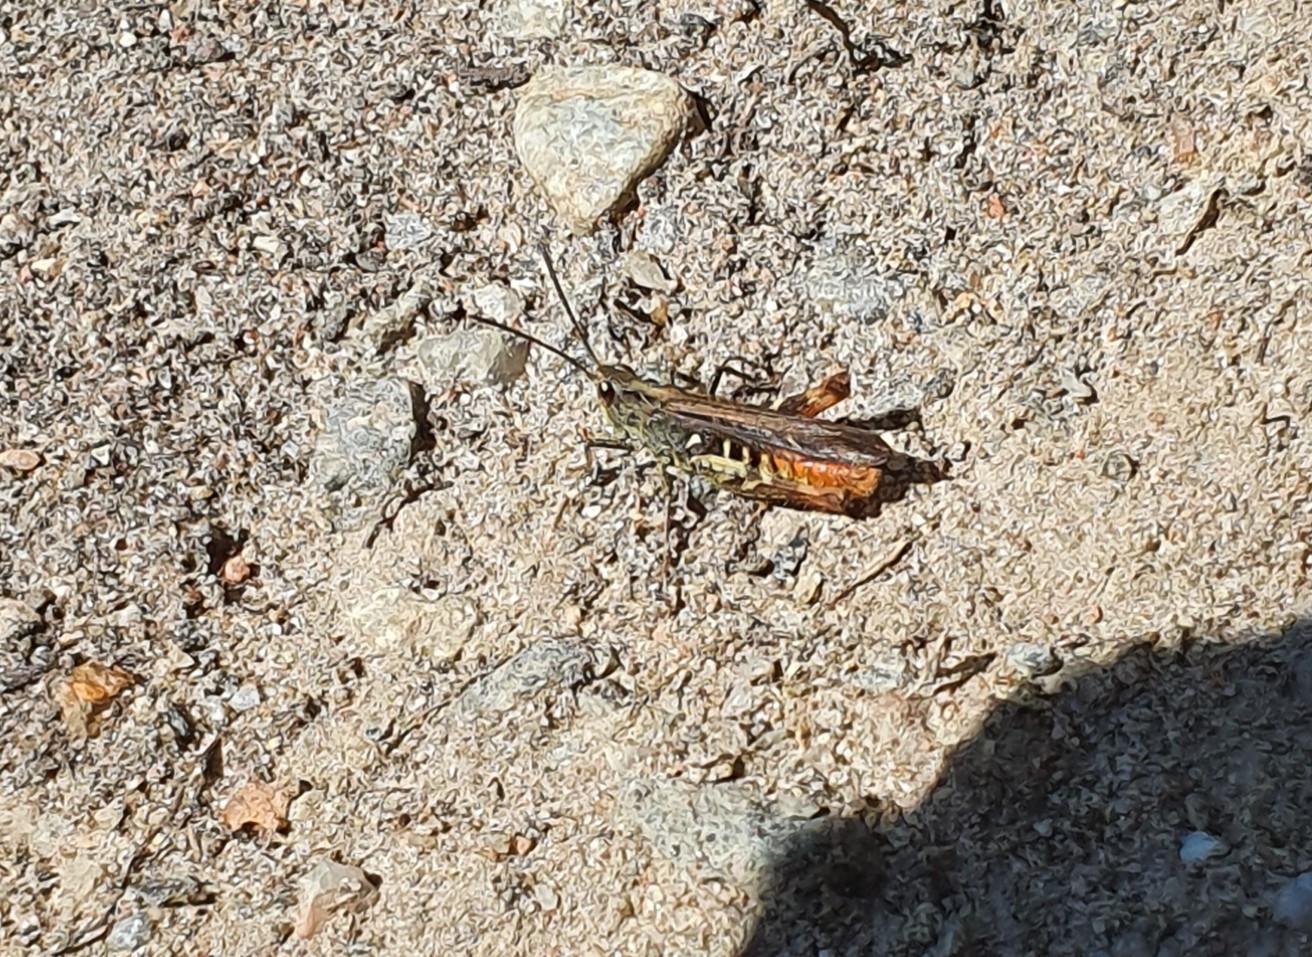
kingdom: Animalia
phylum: Arthropoda
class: Insecta
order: Orthoptera
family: Acrididae
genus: Chorthippus
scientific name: Chorthippus brunneus
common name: Field grasshopper
